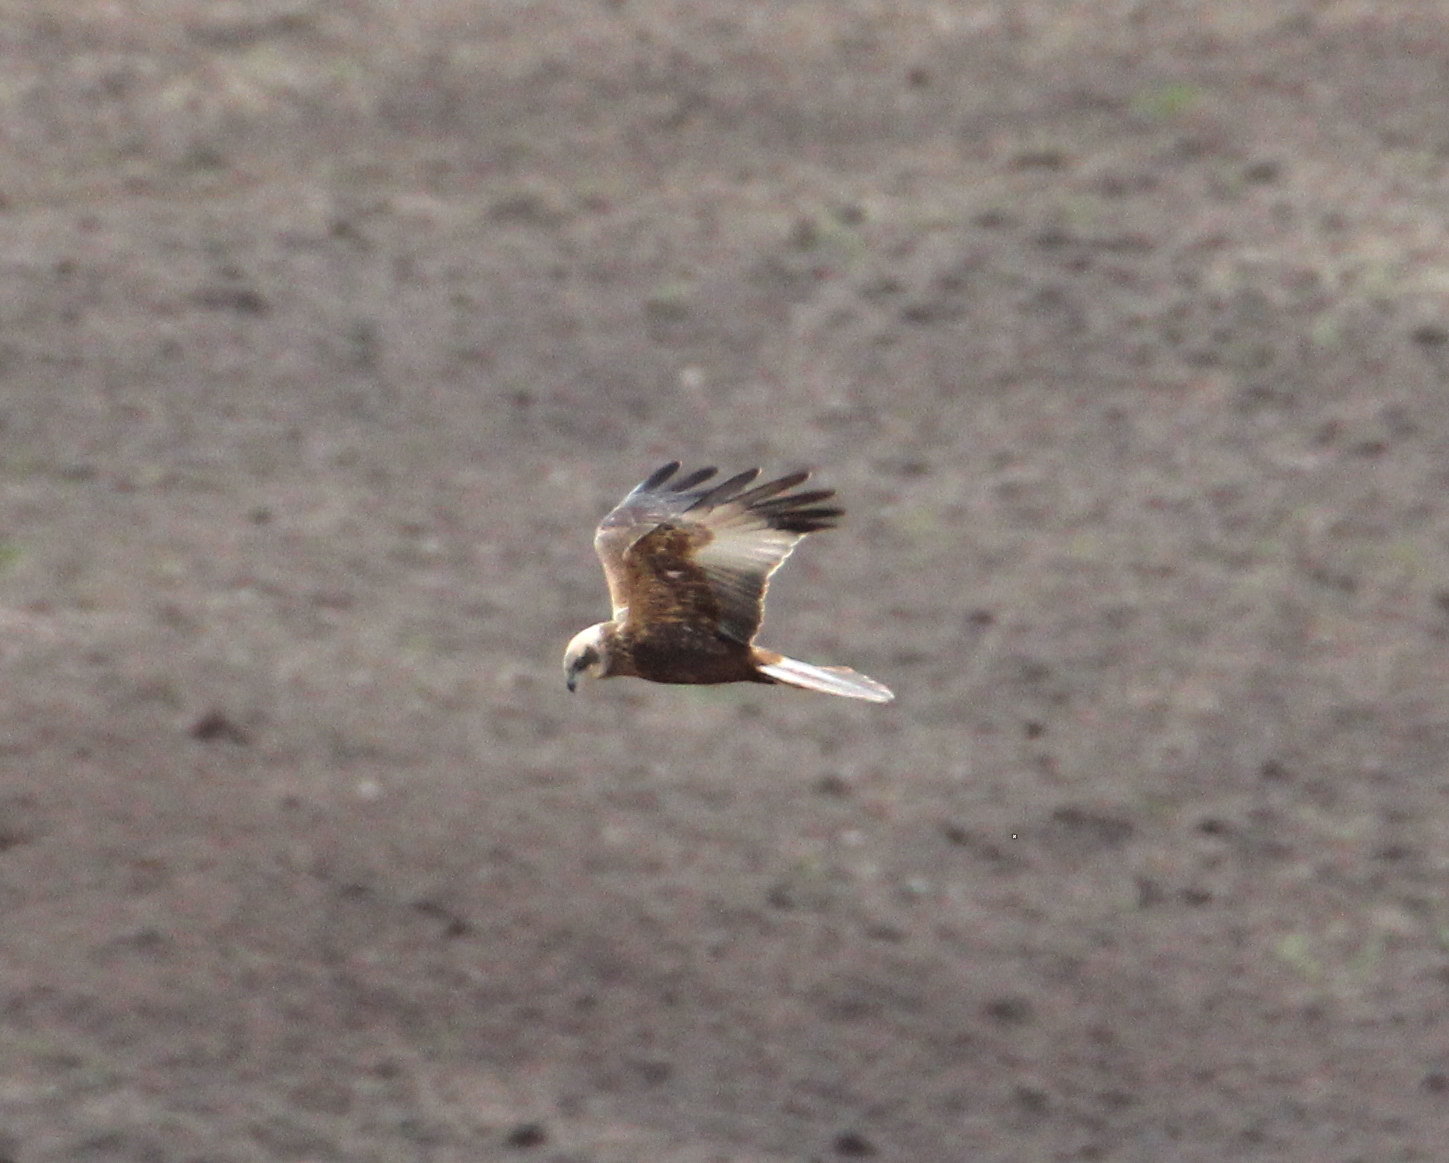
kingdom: Animalia
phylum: Chordata
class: Aves
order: Accipitriformes
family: Accipitridae
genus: Circus
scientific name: Circus aeruginosus
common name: Western marsh harrier
